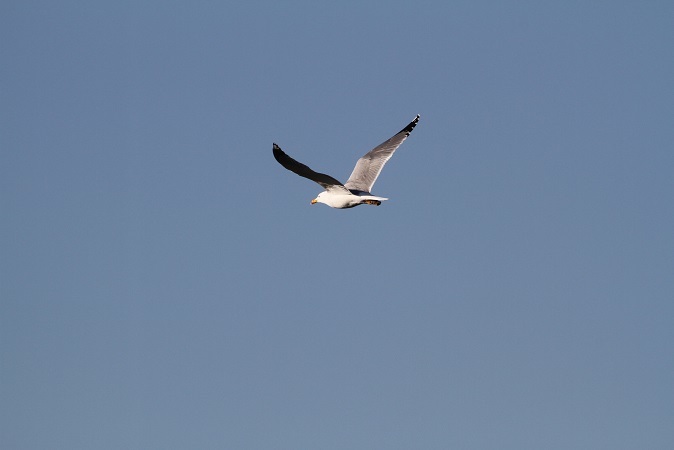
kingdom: Animalia
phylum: Chordata
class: Aves
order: Charadriiformes
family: Laridae
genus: Larus
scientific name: Larus michahellis
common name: Yellow-legged gull
